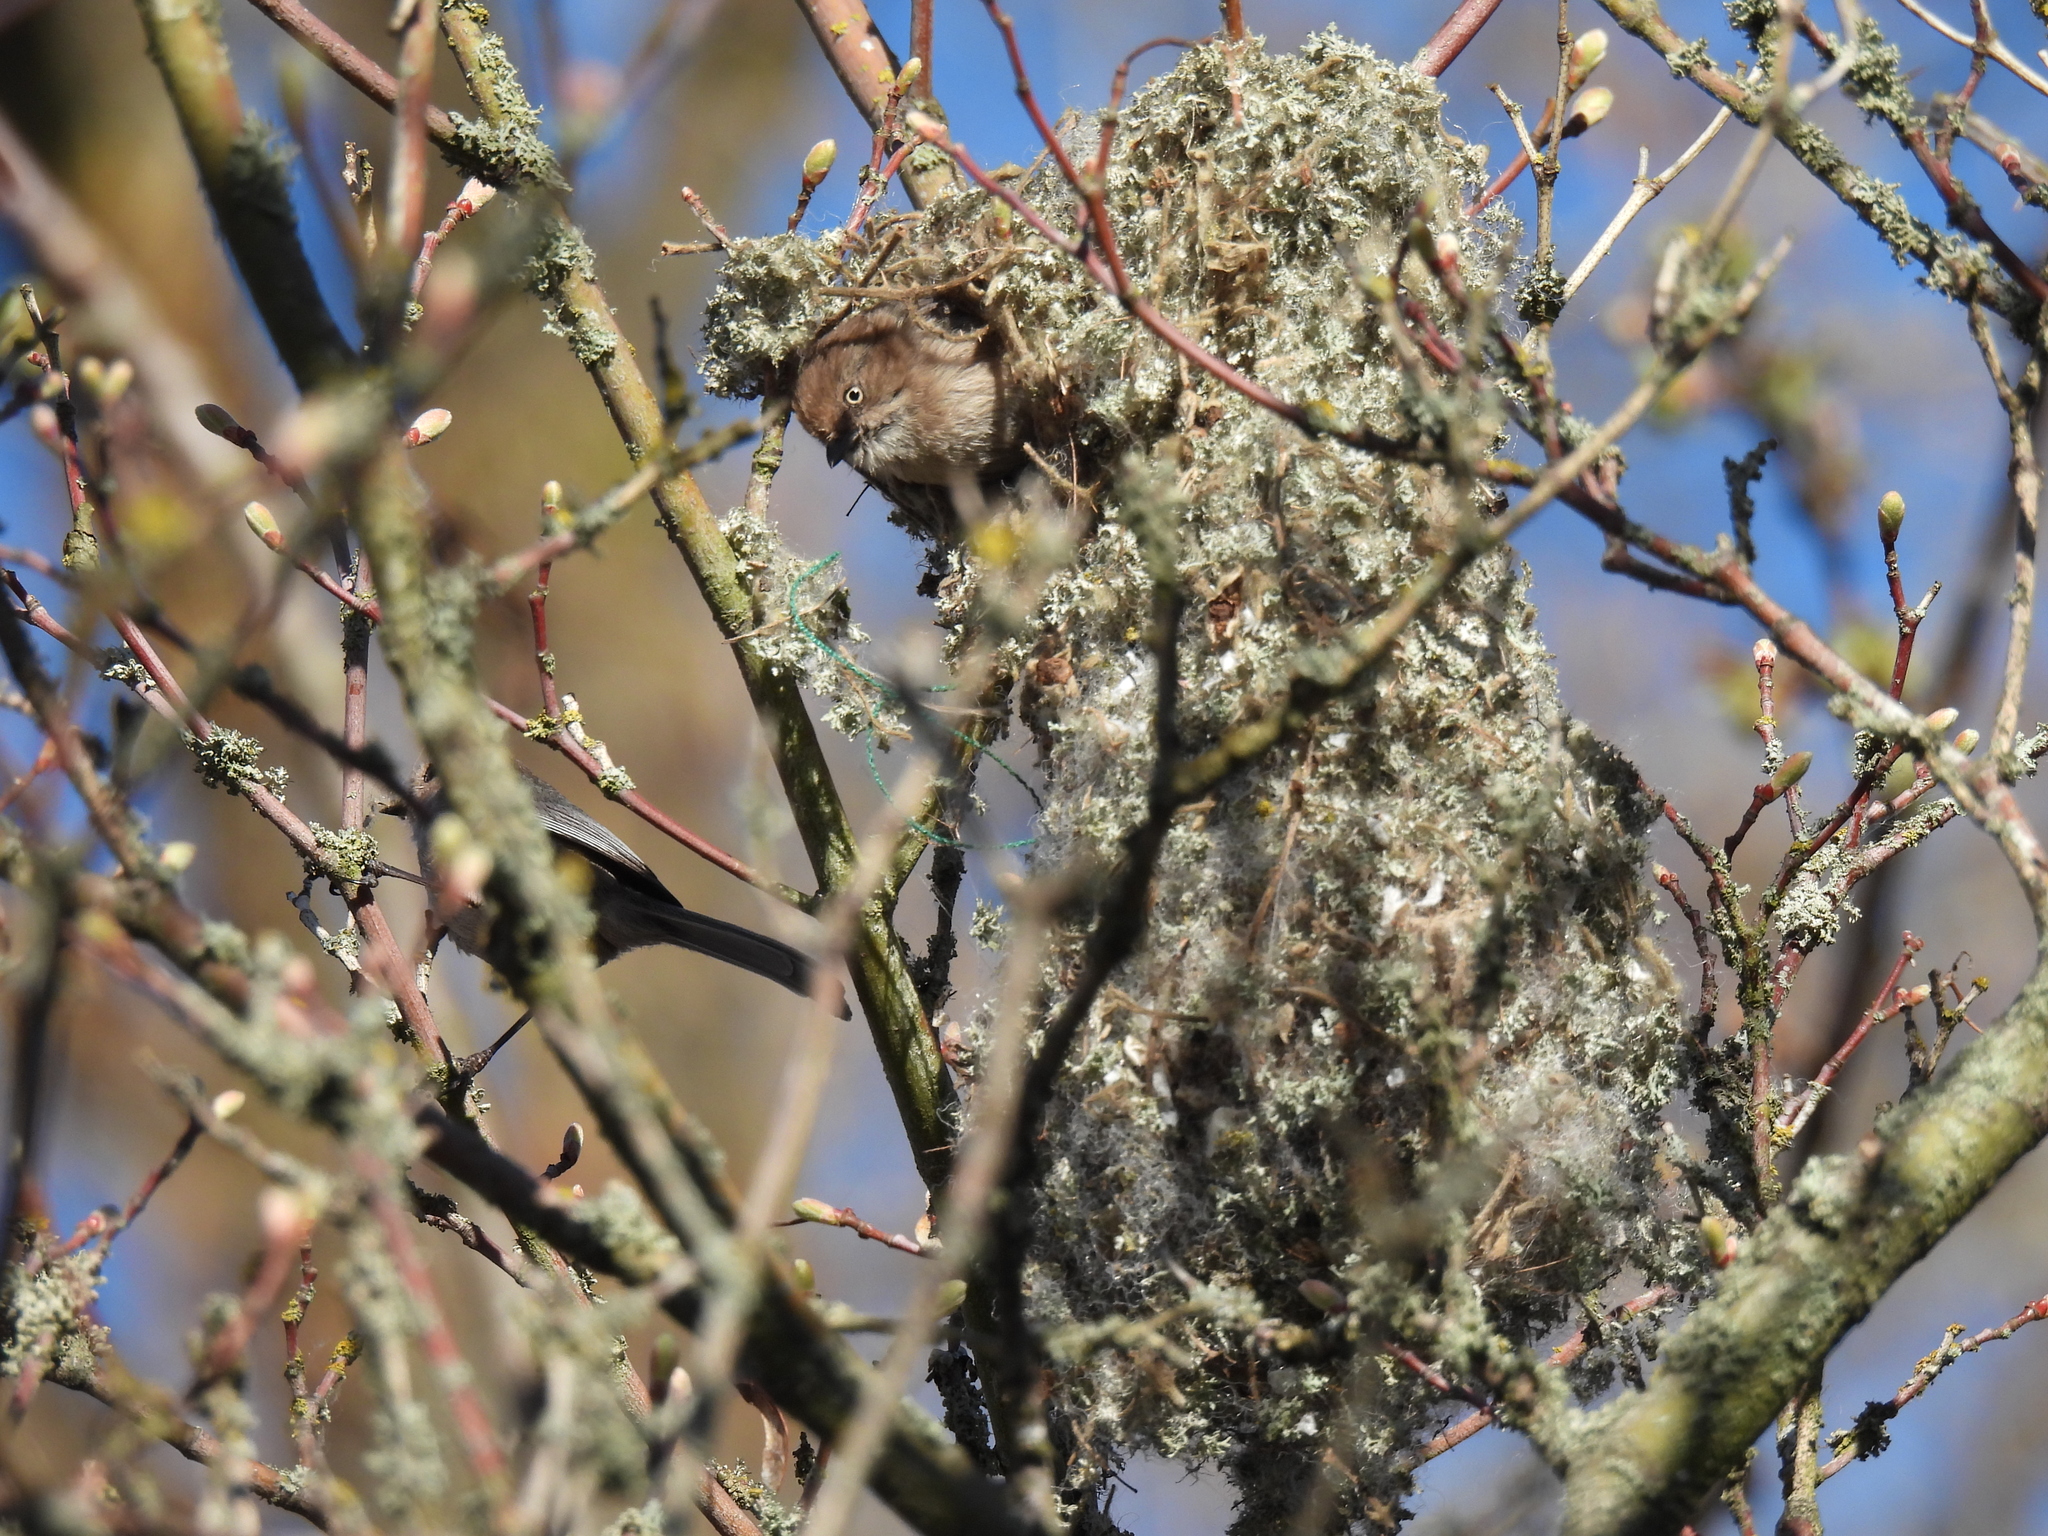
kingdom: Animalia
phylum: Chordata
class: Aves
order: Passeriformes
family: Aegithalidae
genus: Psaltriparus
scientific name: Psaltriparus minimus
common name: American bushtit
